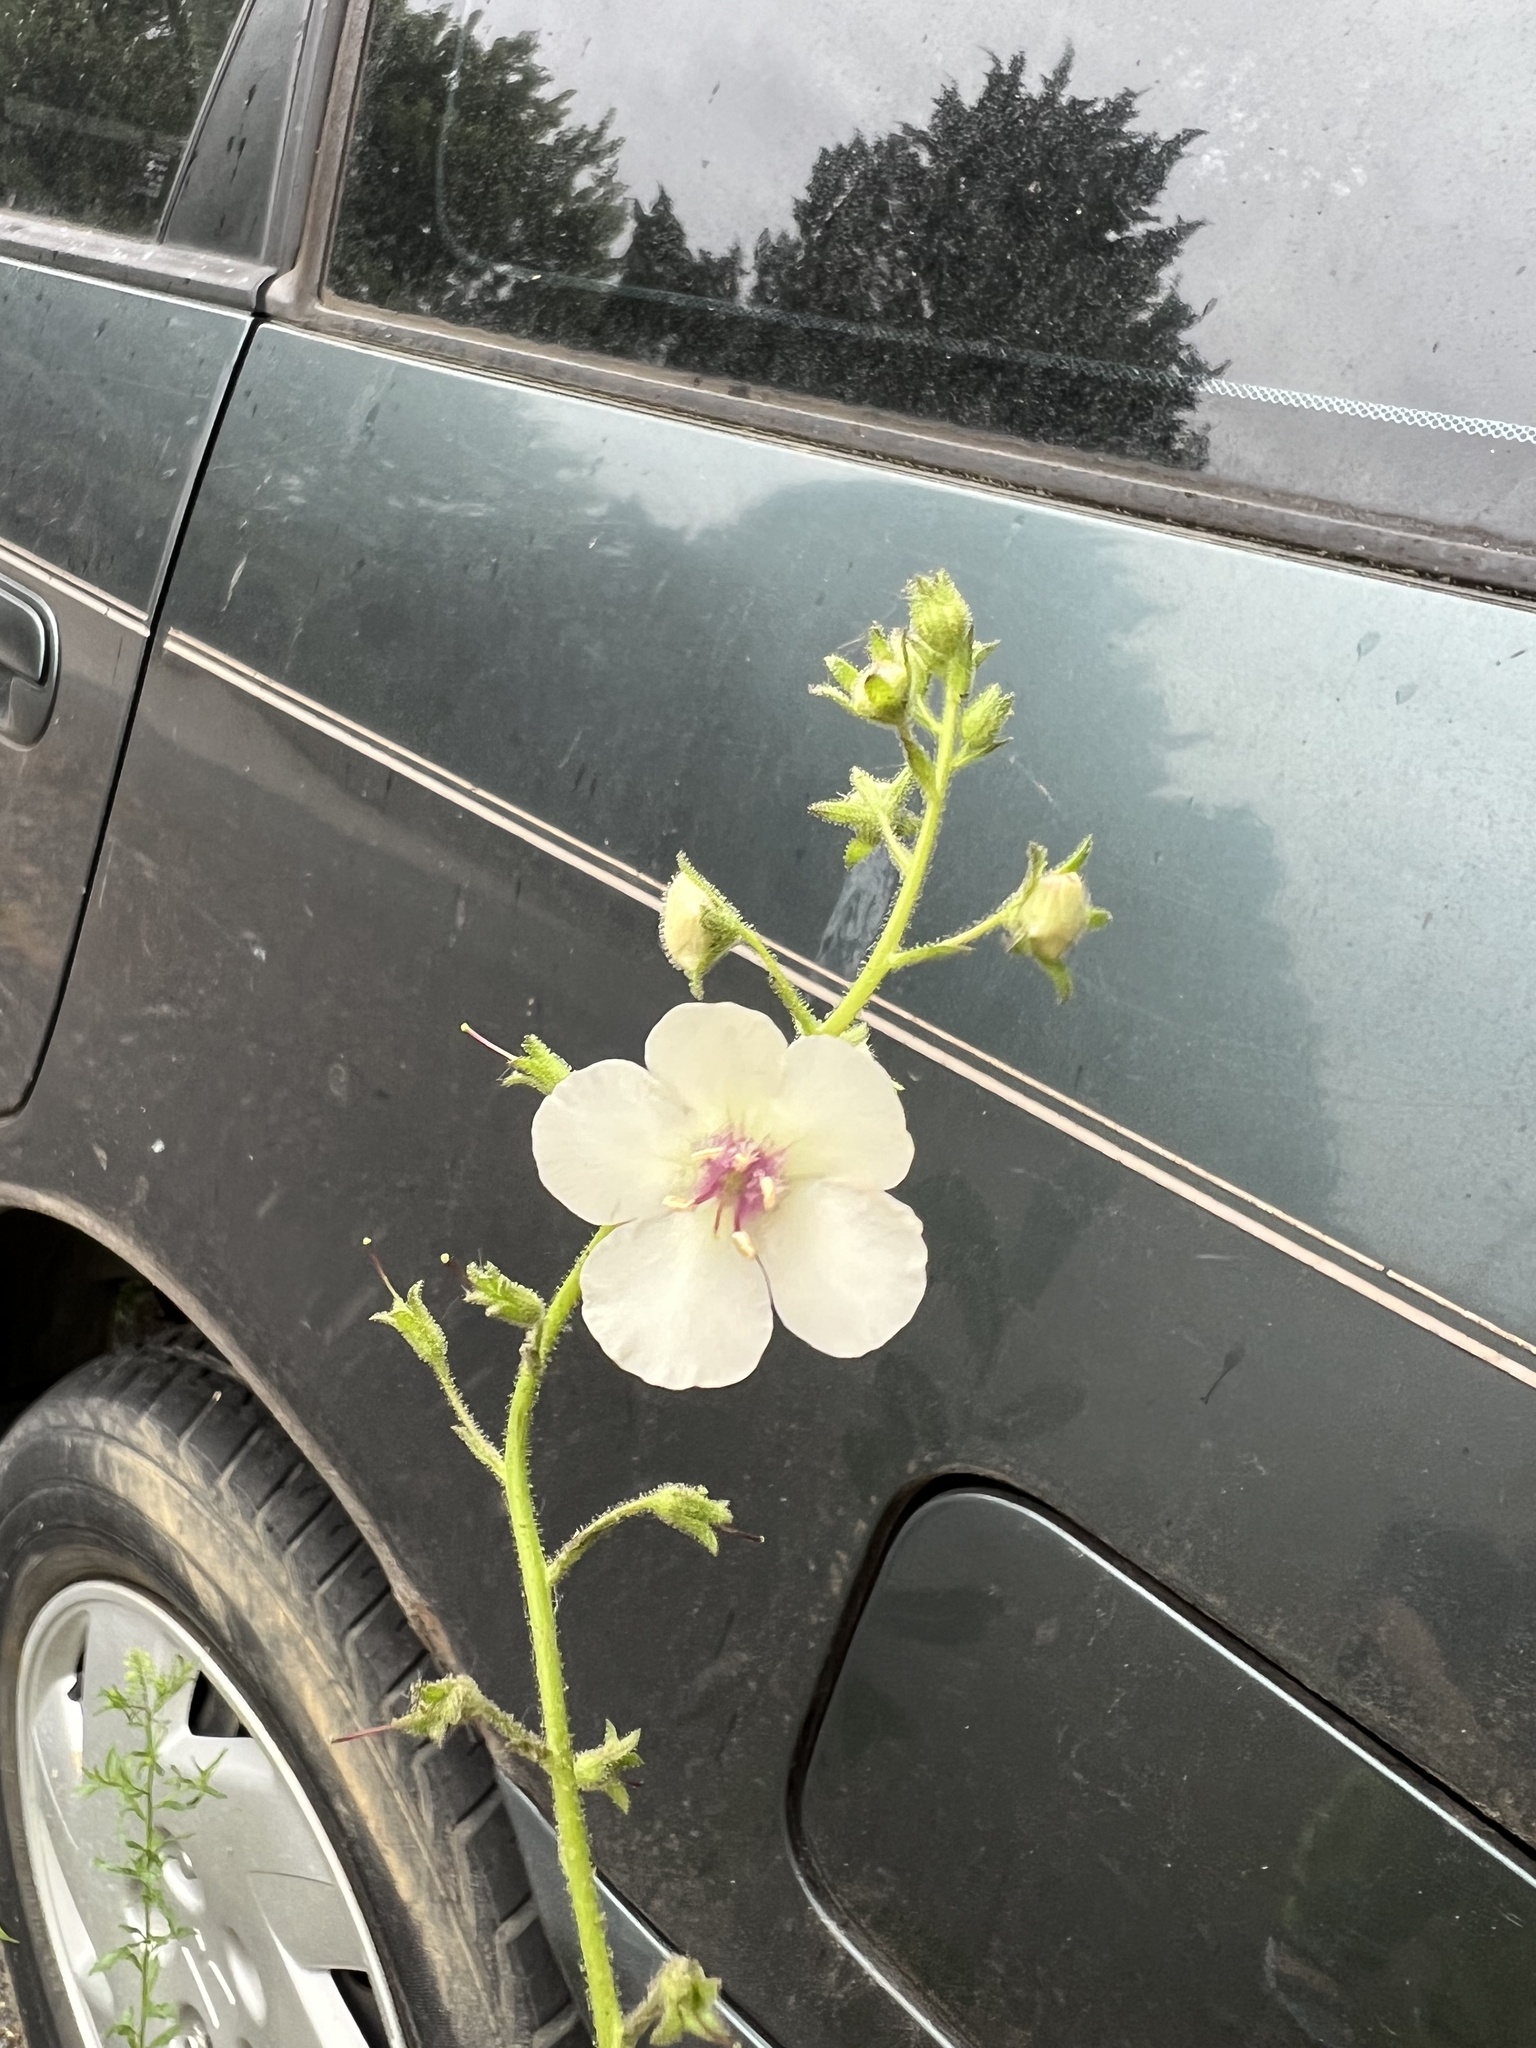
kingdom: Plantae
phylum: Tracheophyta
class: Magnoliopsida
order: Lamiales
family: Scrophulariaceae
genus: Verbascum
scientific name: Verbascum blattaria
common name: Moth mullein
